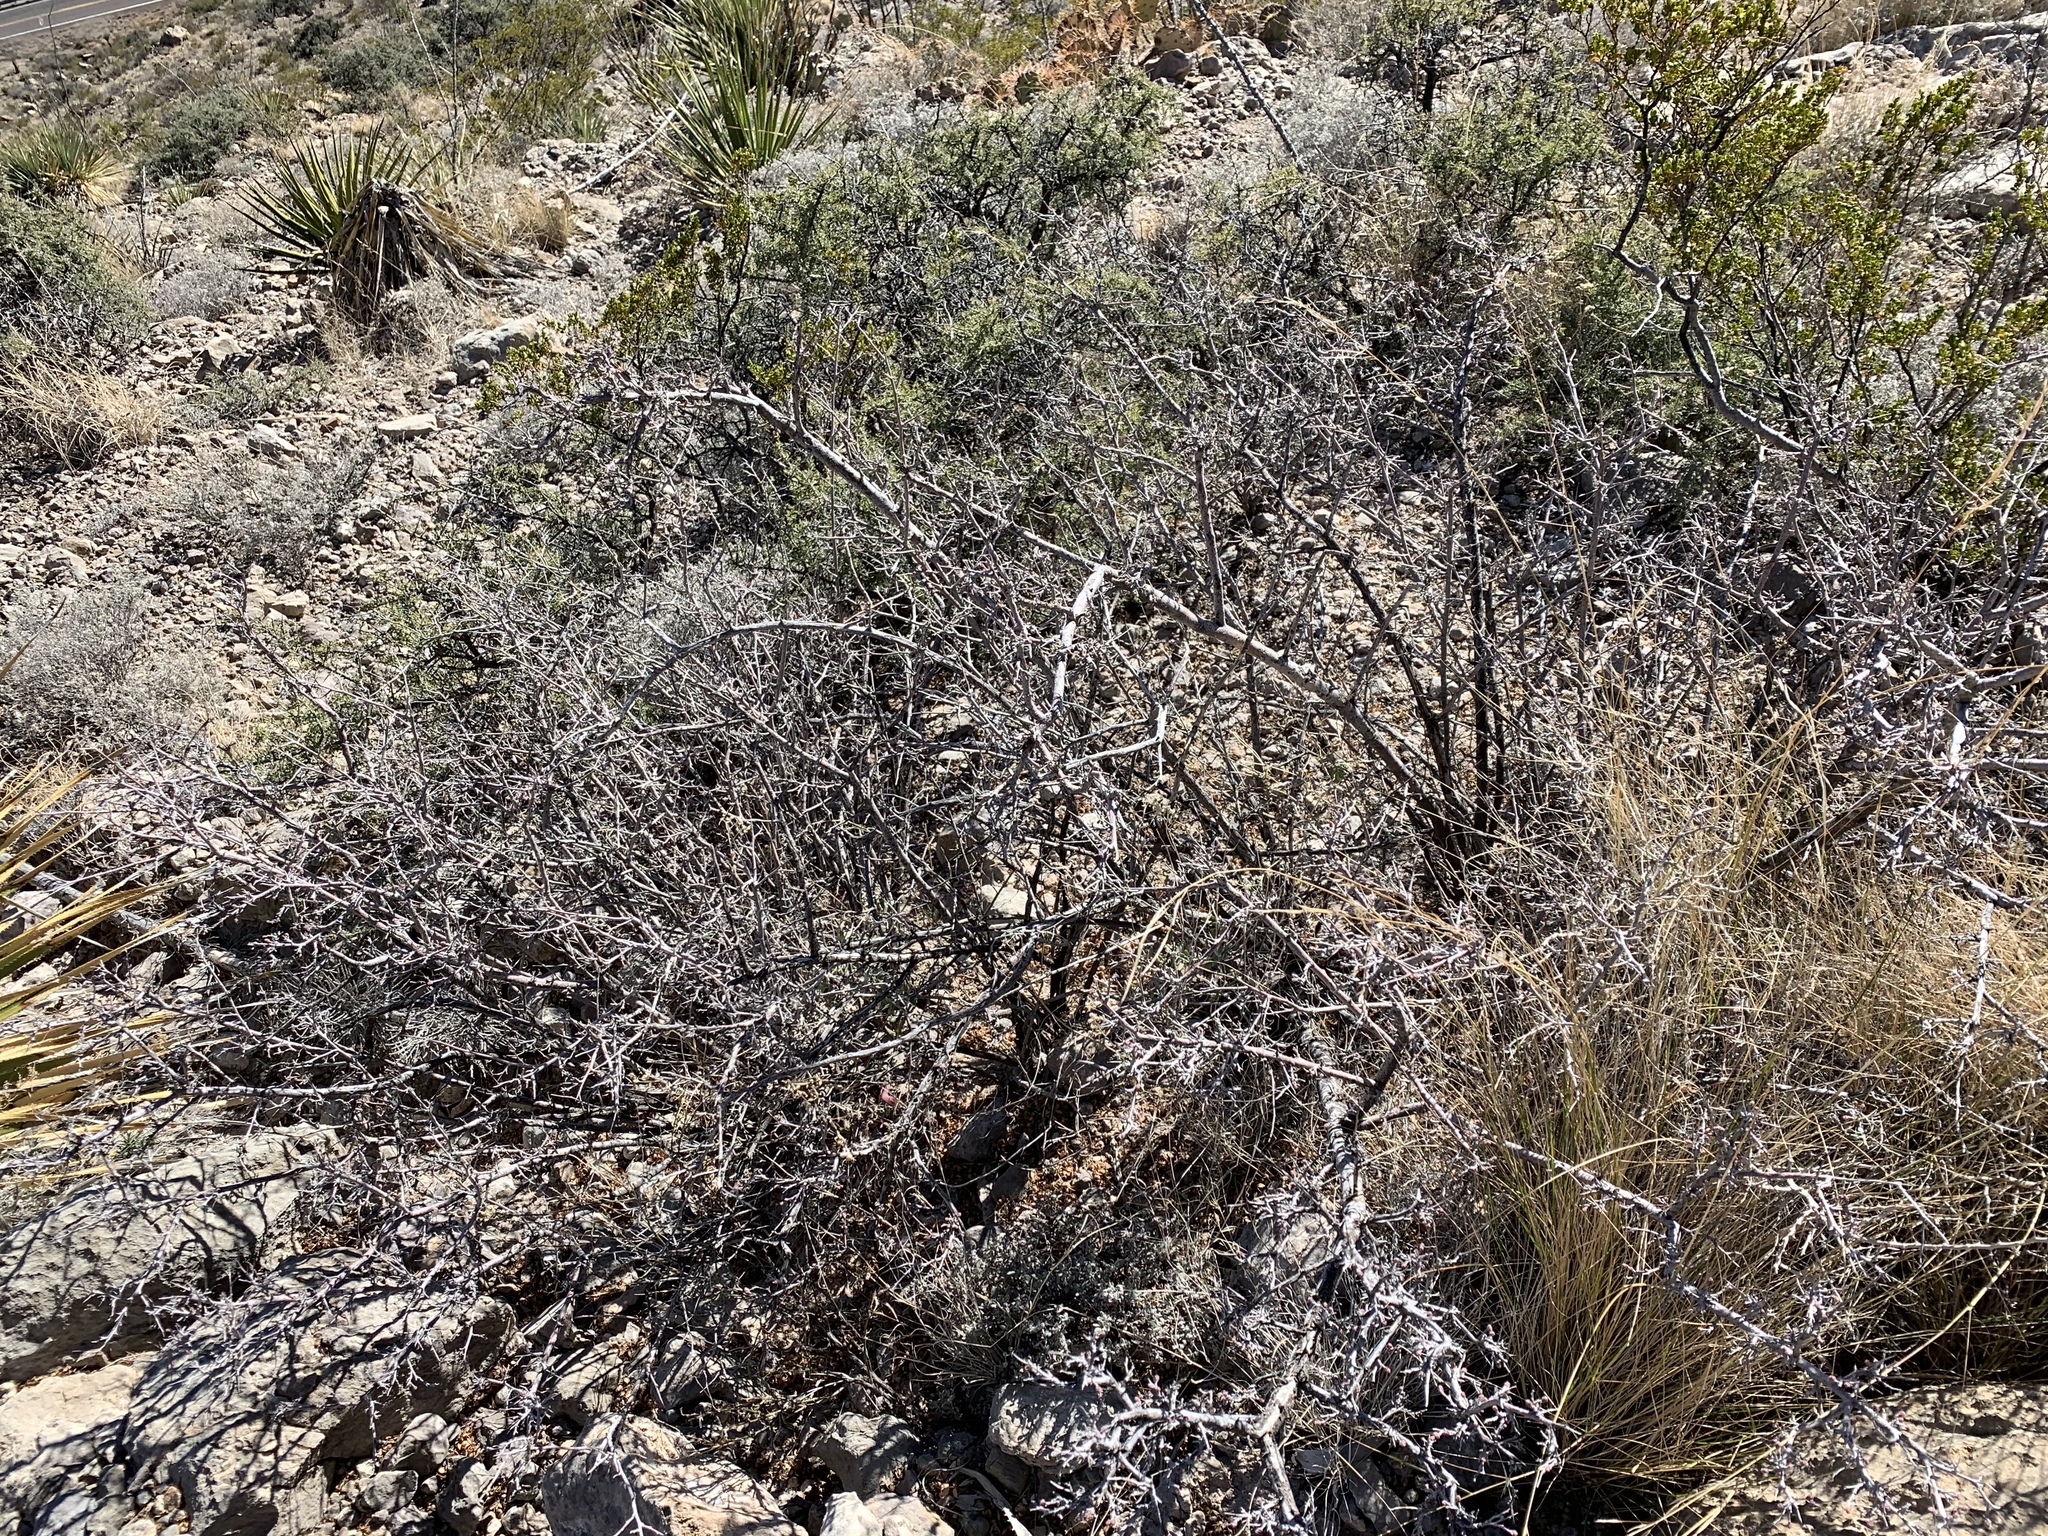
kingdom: Plantae
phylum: Tracheophyta
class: Magnoliopsida
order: Sapindales
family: Anacardiaceae
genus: Rhus
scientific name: Rhus microphylla
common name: Desert sumac
